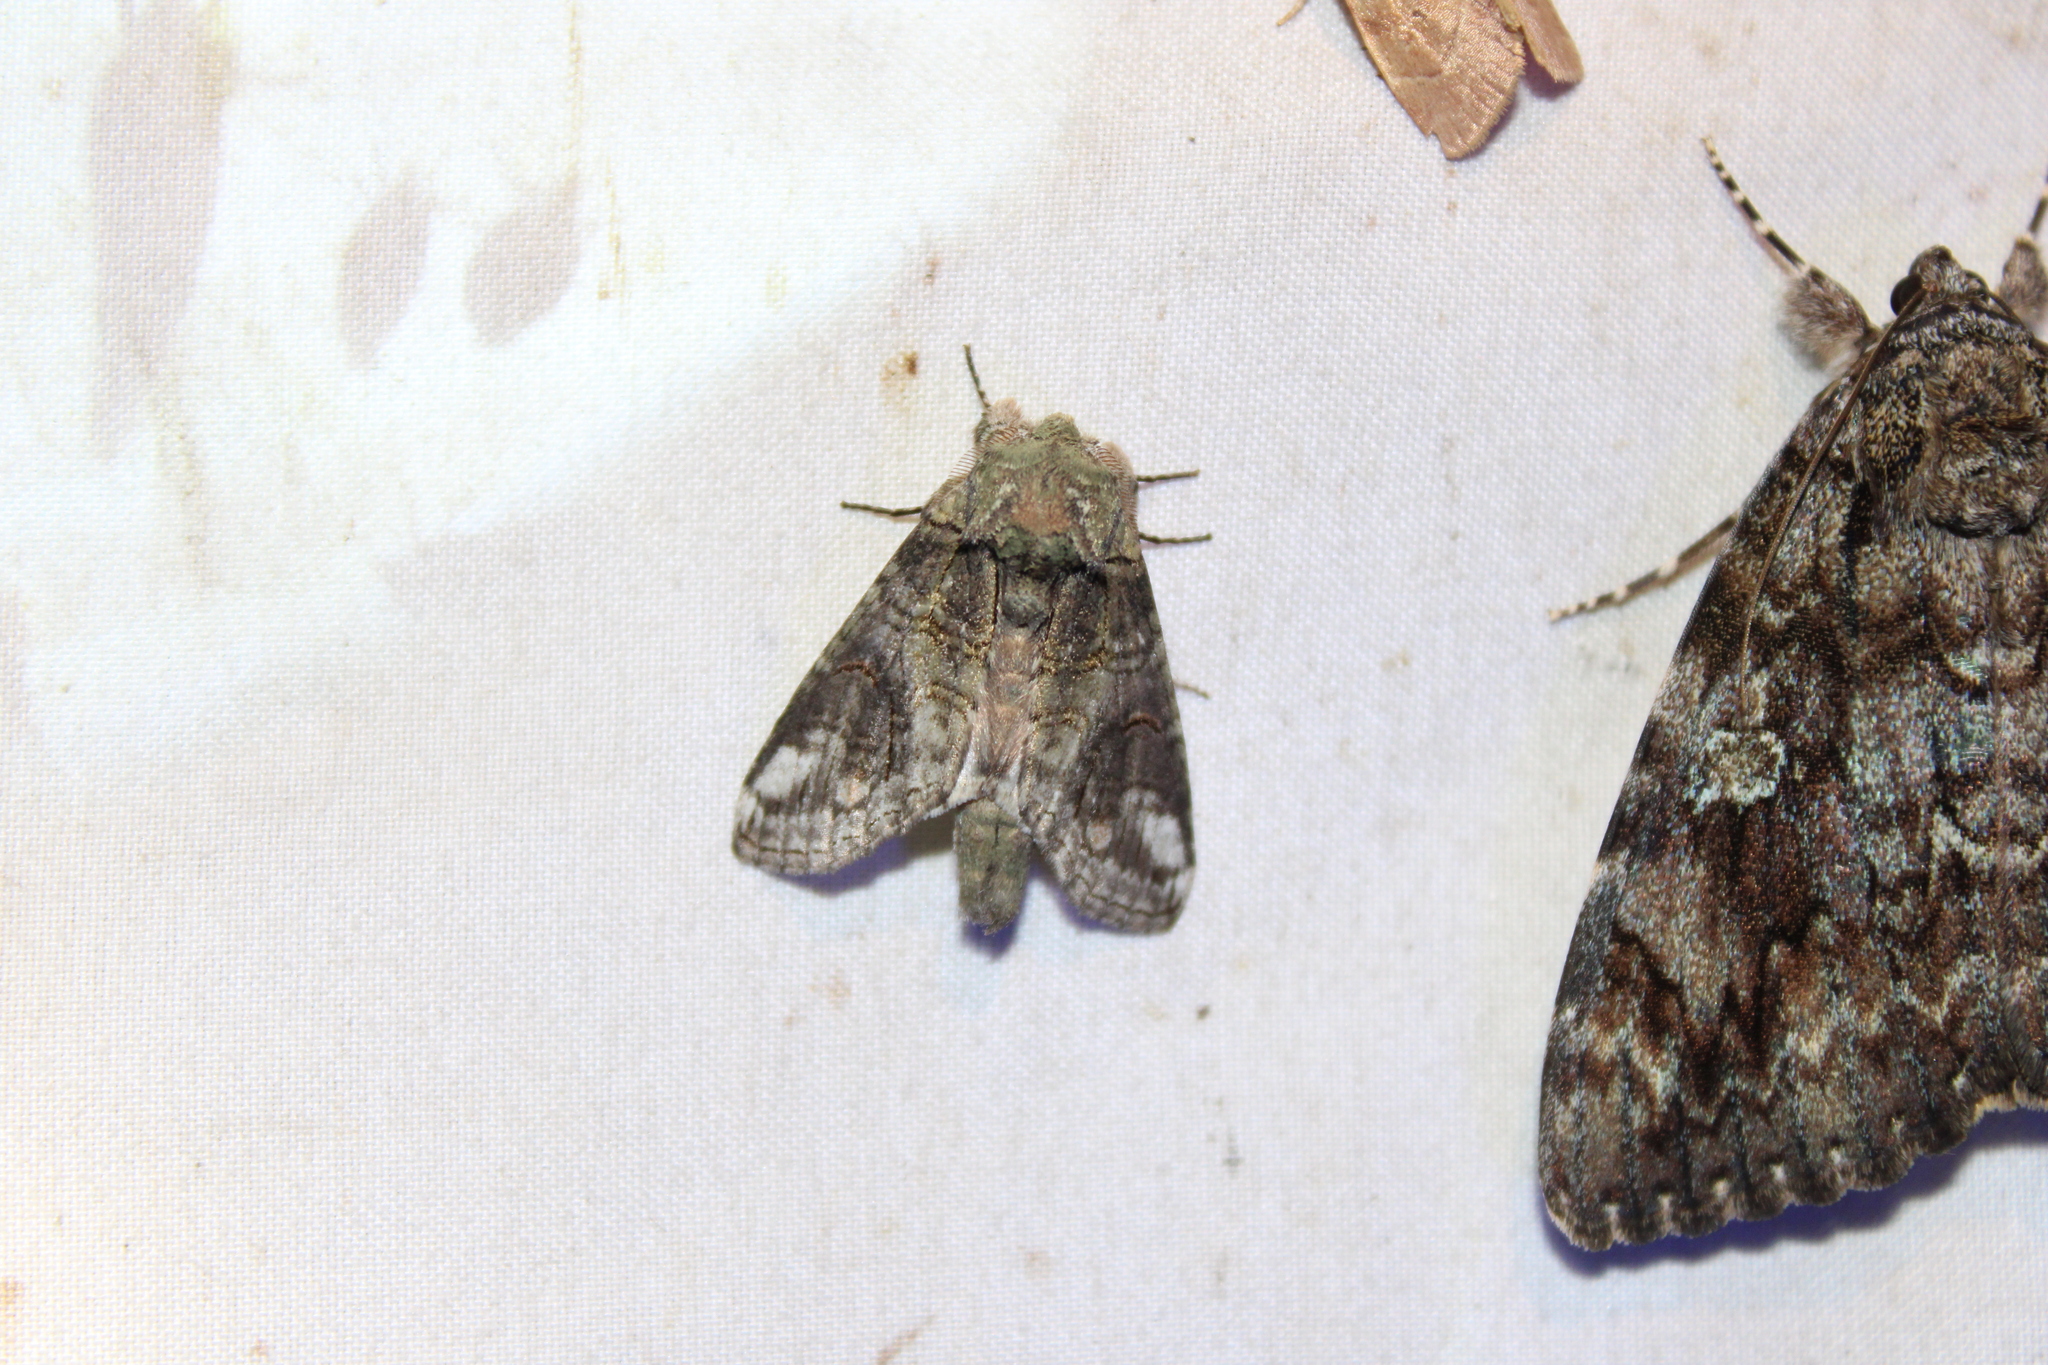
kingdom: Animalia
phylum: Arthropoda
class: Insecta
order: Lepidoptera
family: Notodontidae
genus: Heterocampa
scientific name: Heterocampa obliqua
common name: Oblique heterocampa
